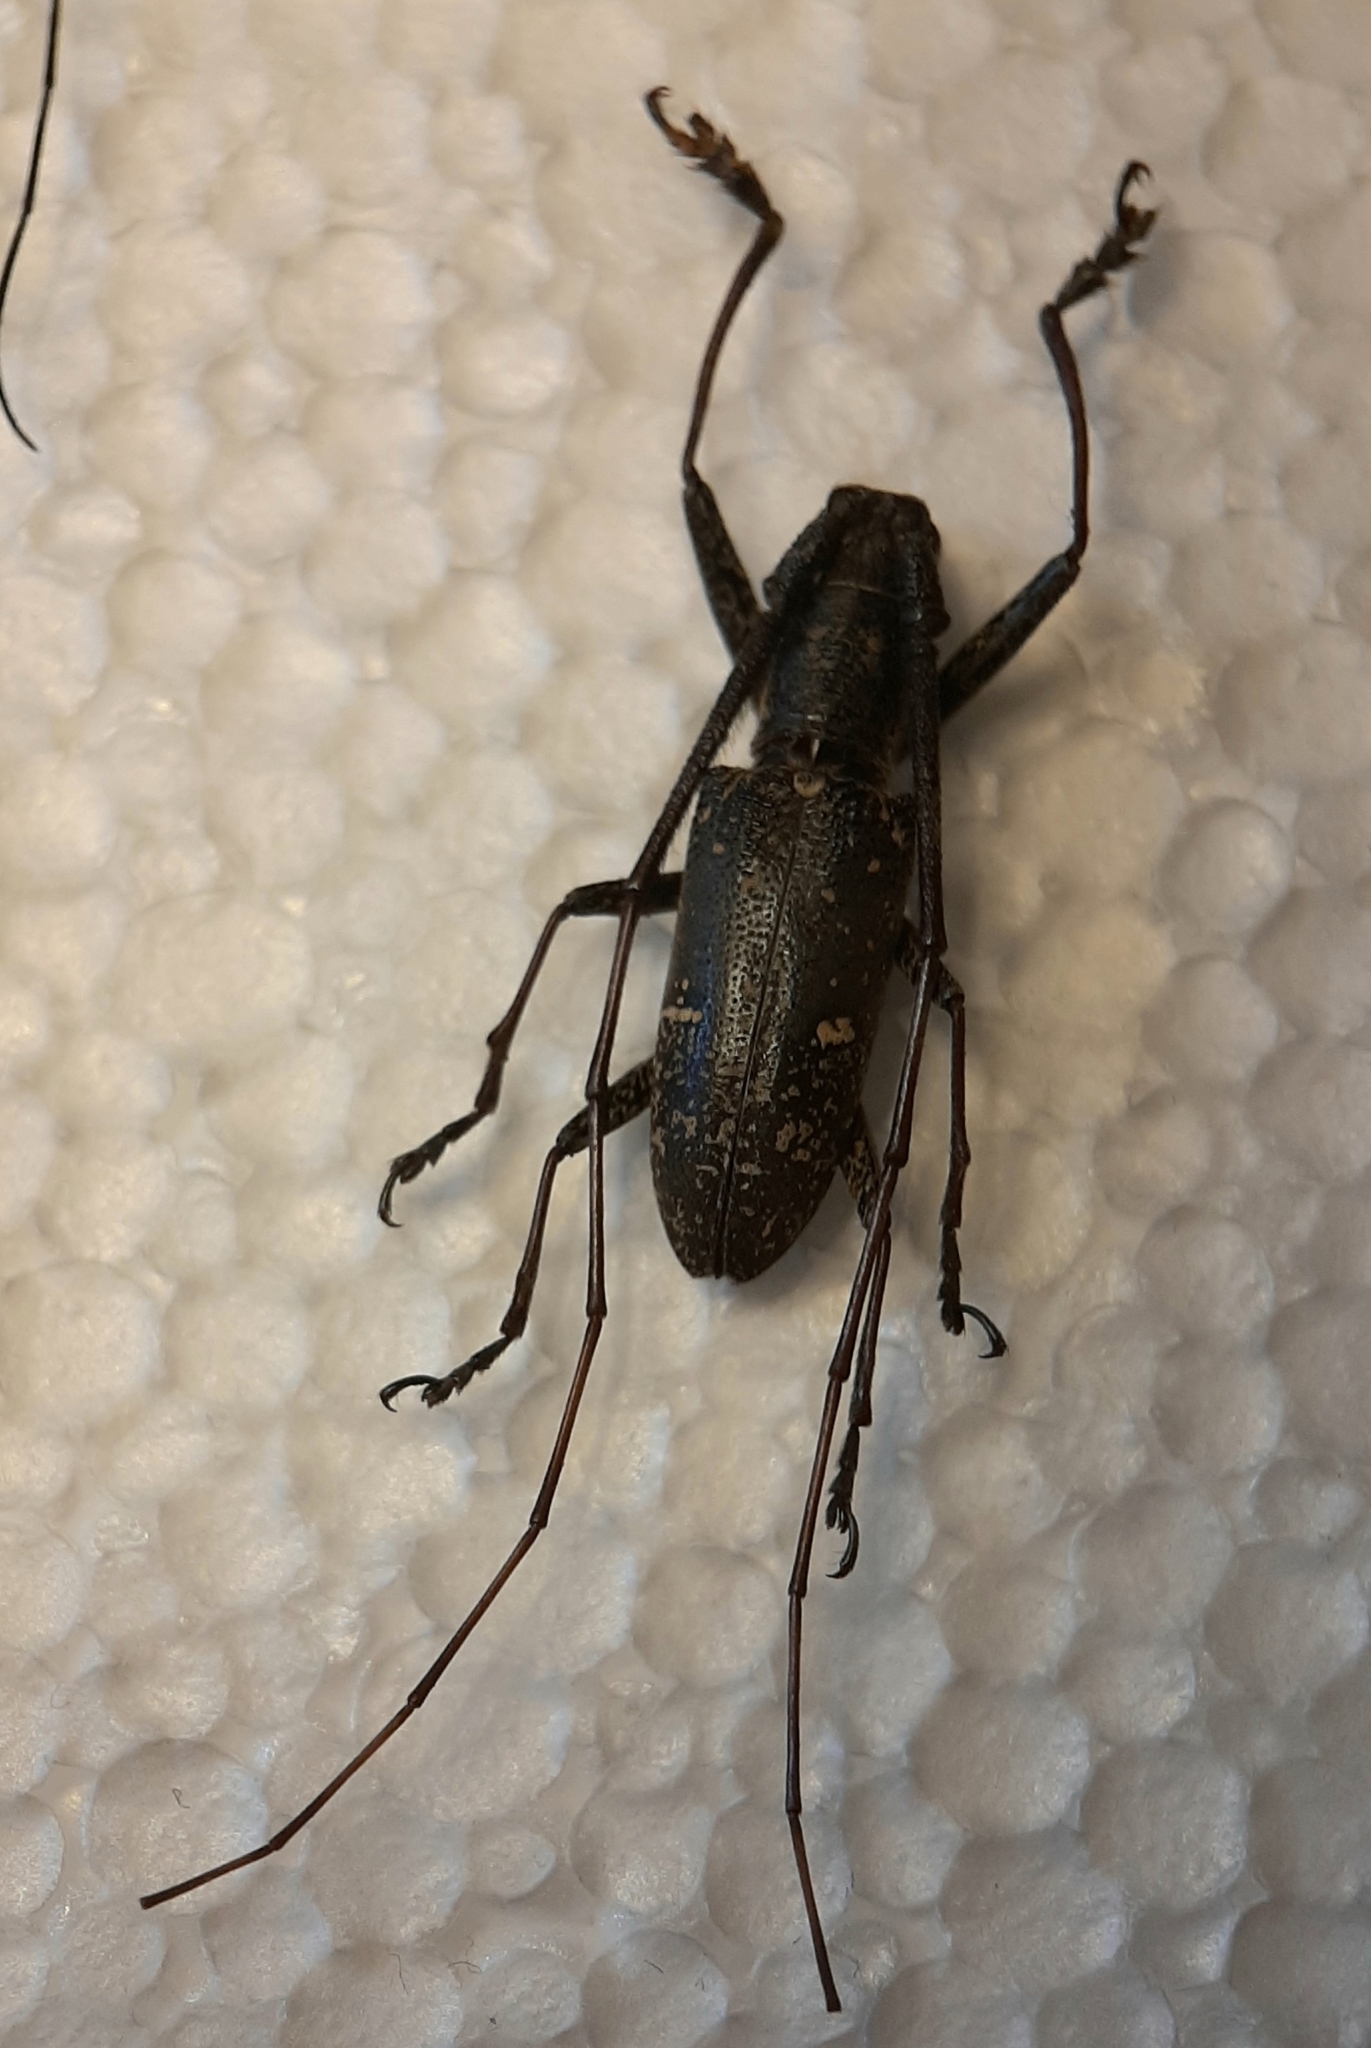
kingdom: Animalia
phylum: Arthropoda
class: Insecta
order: Coleoptera
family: Cerambycidae
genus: Pseudomacrochenus
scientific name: Pseudomacrochenus antennatus
